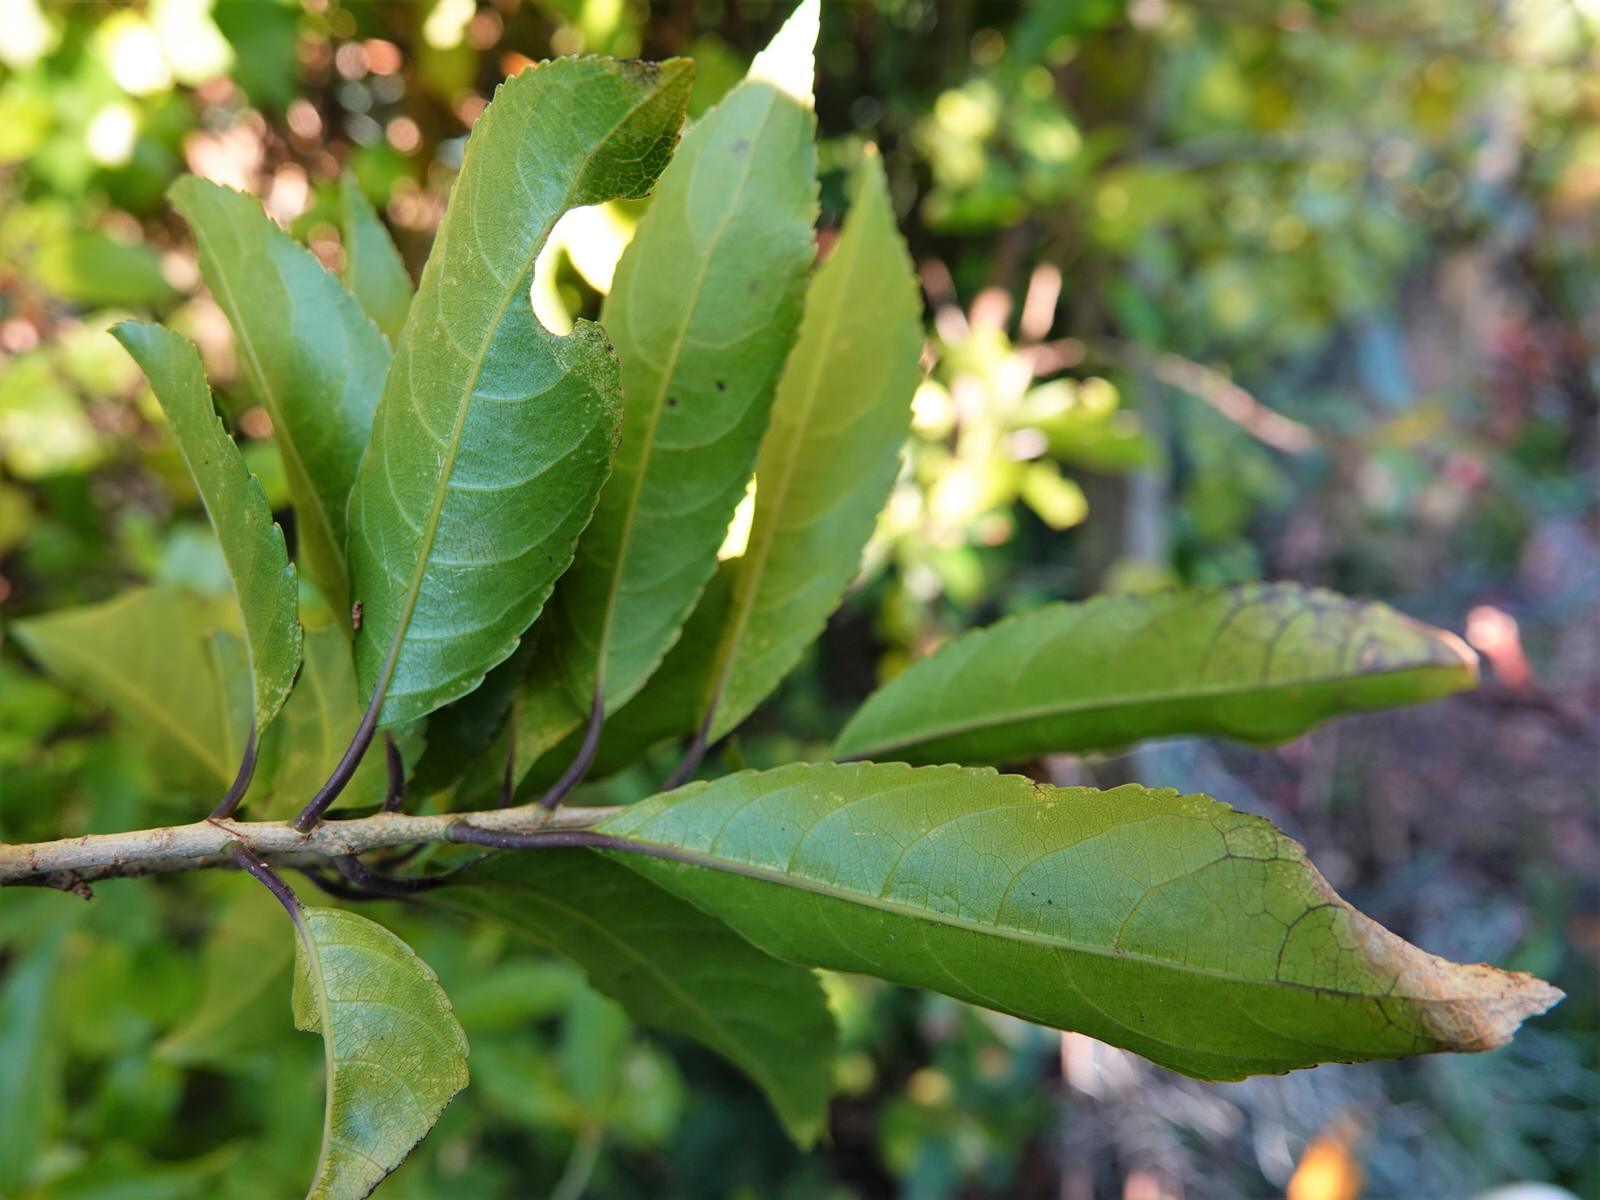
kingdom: Plantae
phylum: Tracheophyta
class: Magnoliopsida
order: Malpighiales
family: Violaceae
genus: Melicytus
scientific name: Melicytus ramiflorus
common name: Mahoe
